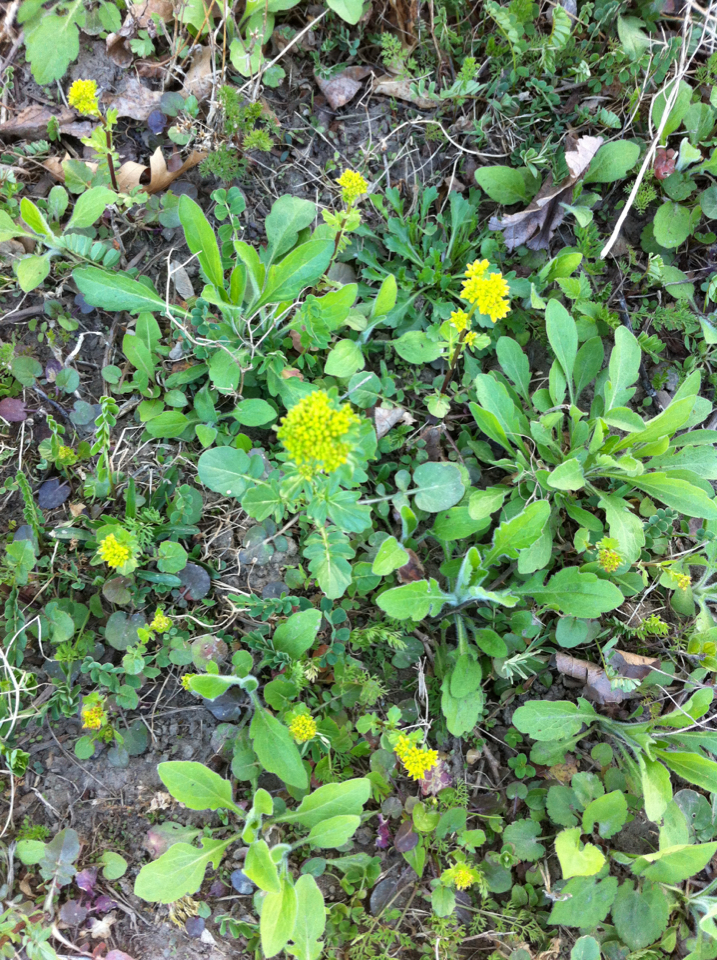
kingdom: Plantae
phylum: Tracheophyta
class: Magnoliopsida
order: Brassicales
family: Brassicaceae
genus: Barbarea
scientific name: Barbarea vulgaris
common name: Cressy-greens
